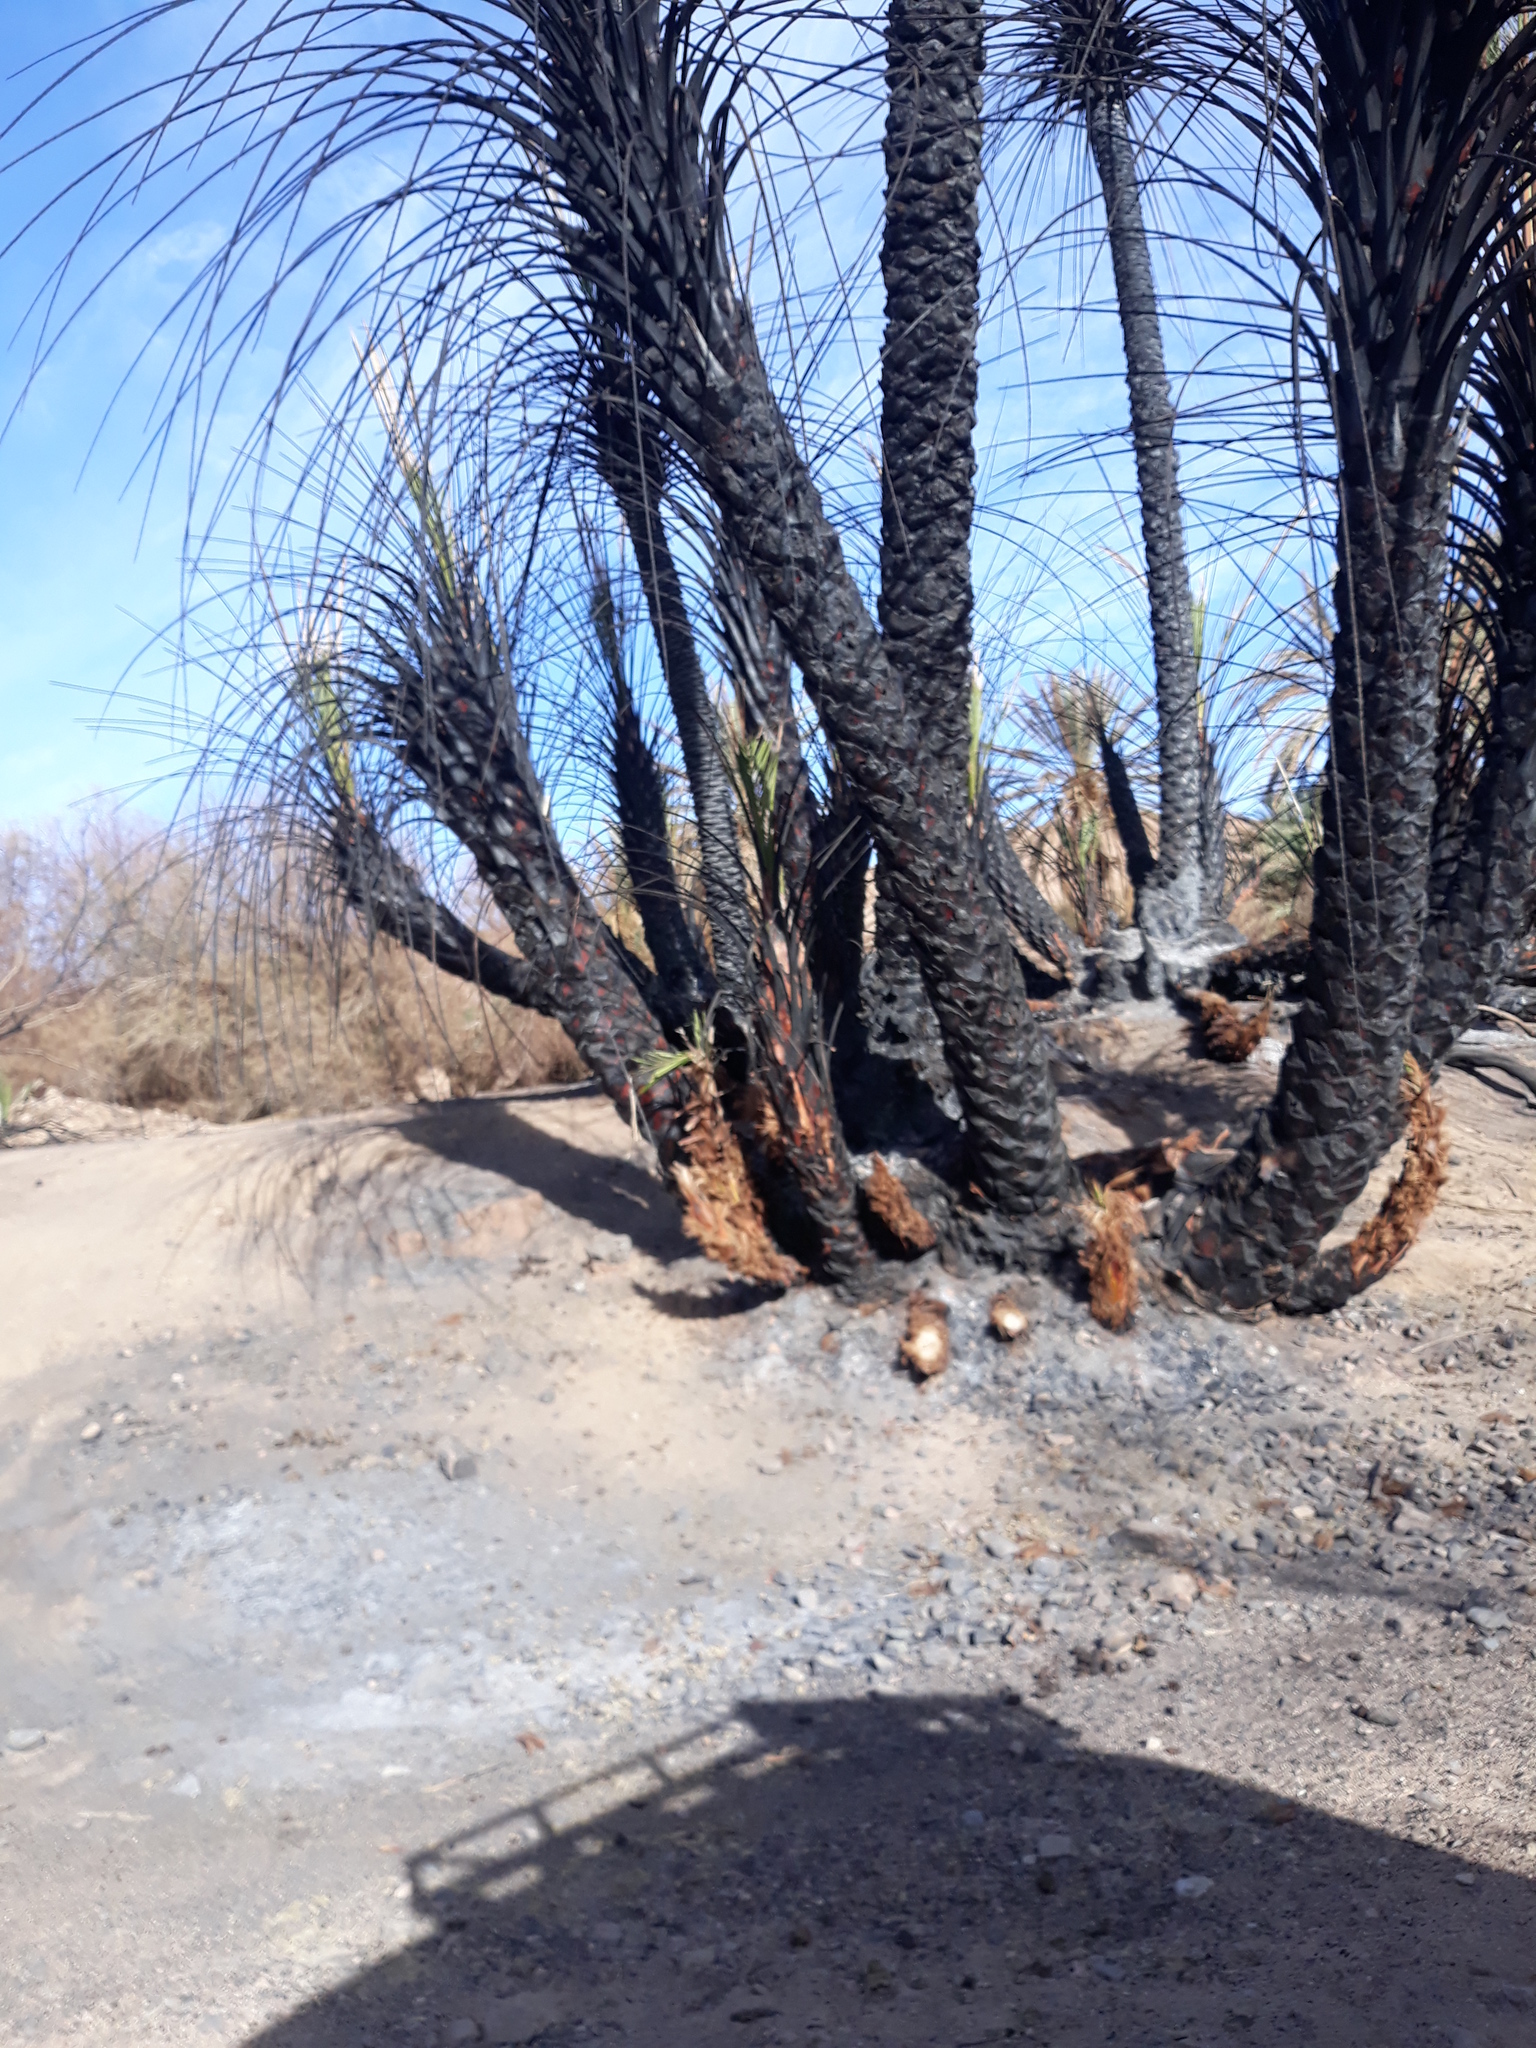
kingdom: Plantae
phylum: Tracheophyta
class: Liliopsida
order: Arecales
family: Arecaceae
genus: Phoenix
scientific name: Phoenix dactylifera
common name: Date palm
